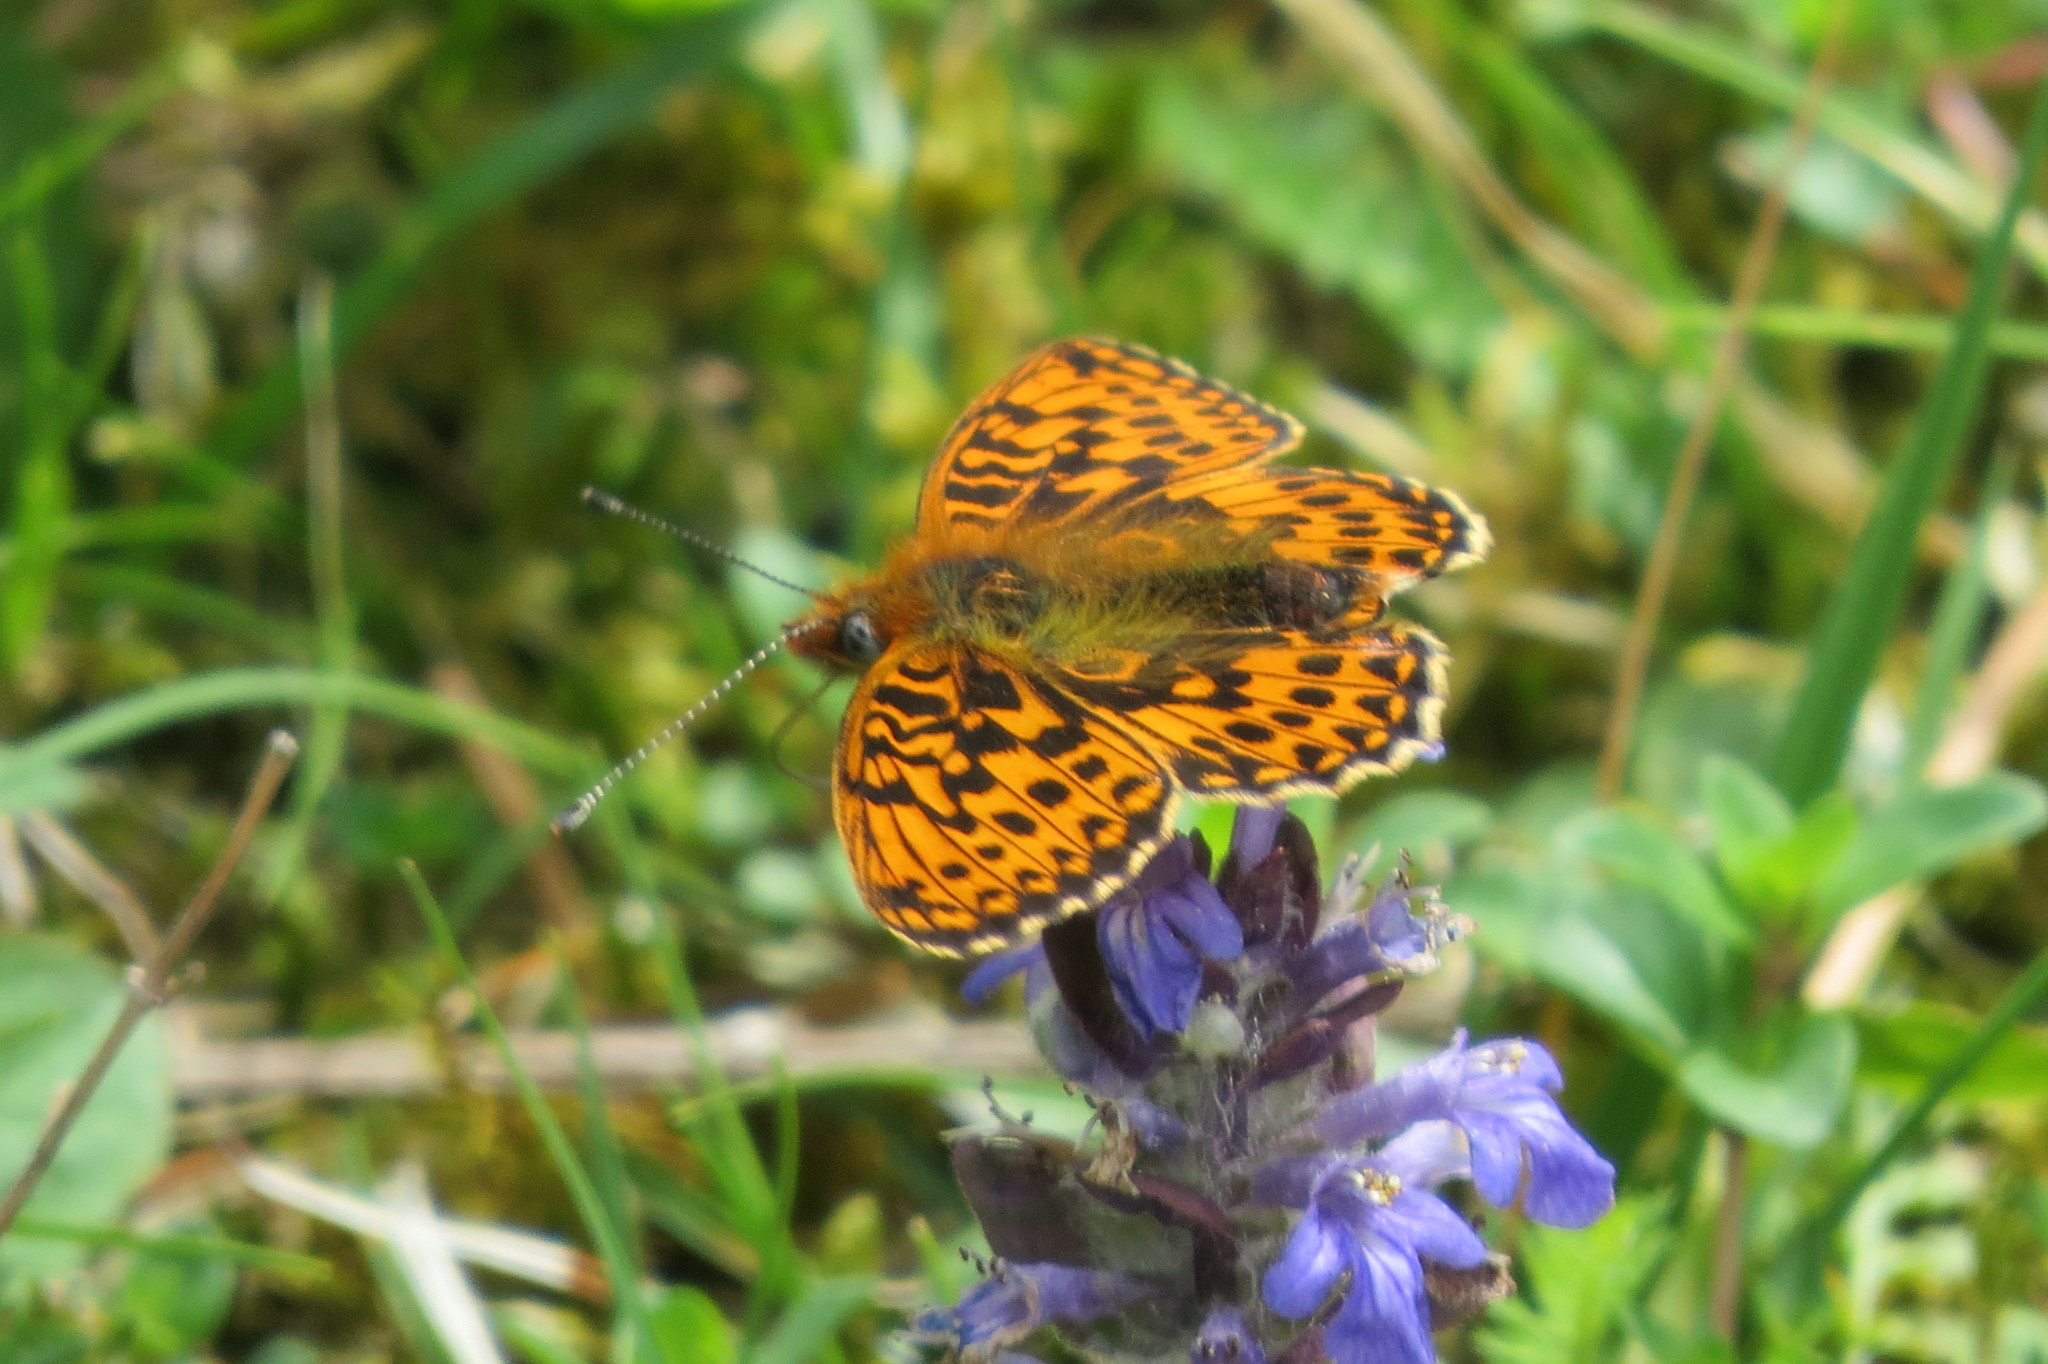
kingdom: Animalia
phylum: Arthropoda
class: Insecta
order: Lepidoptera
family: Nymphalidae
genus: Clossiana
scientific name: Clossiana euphrosyne
